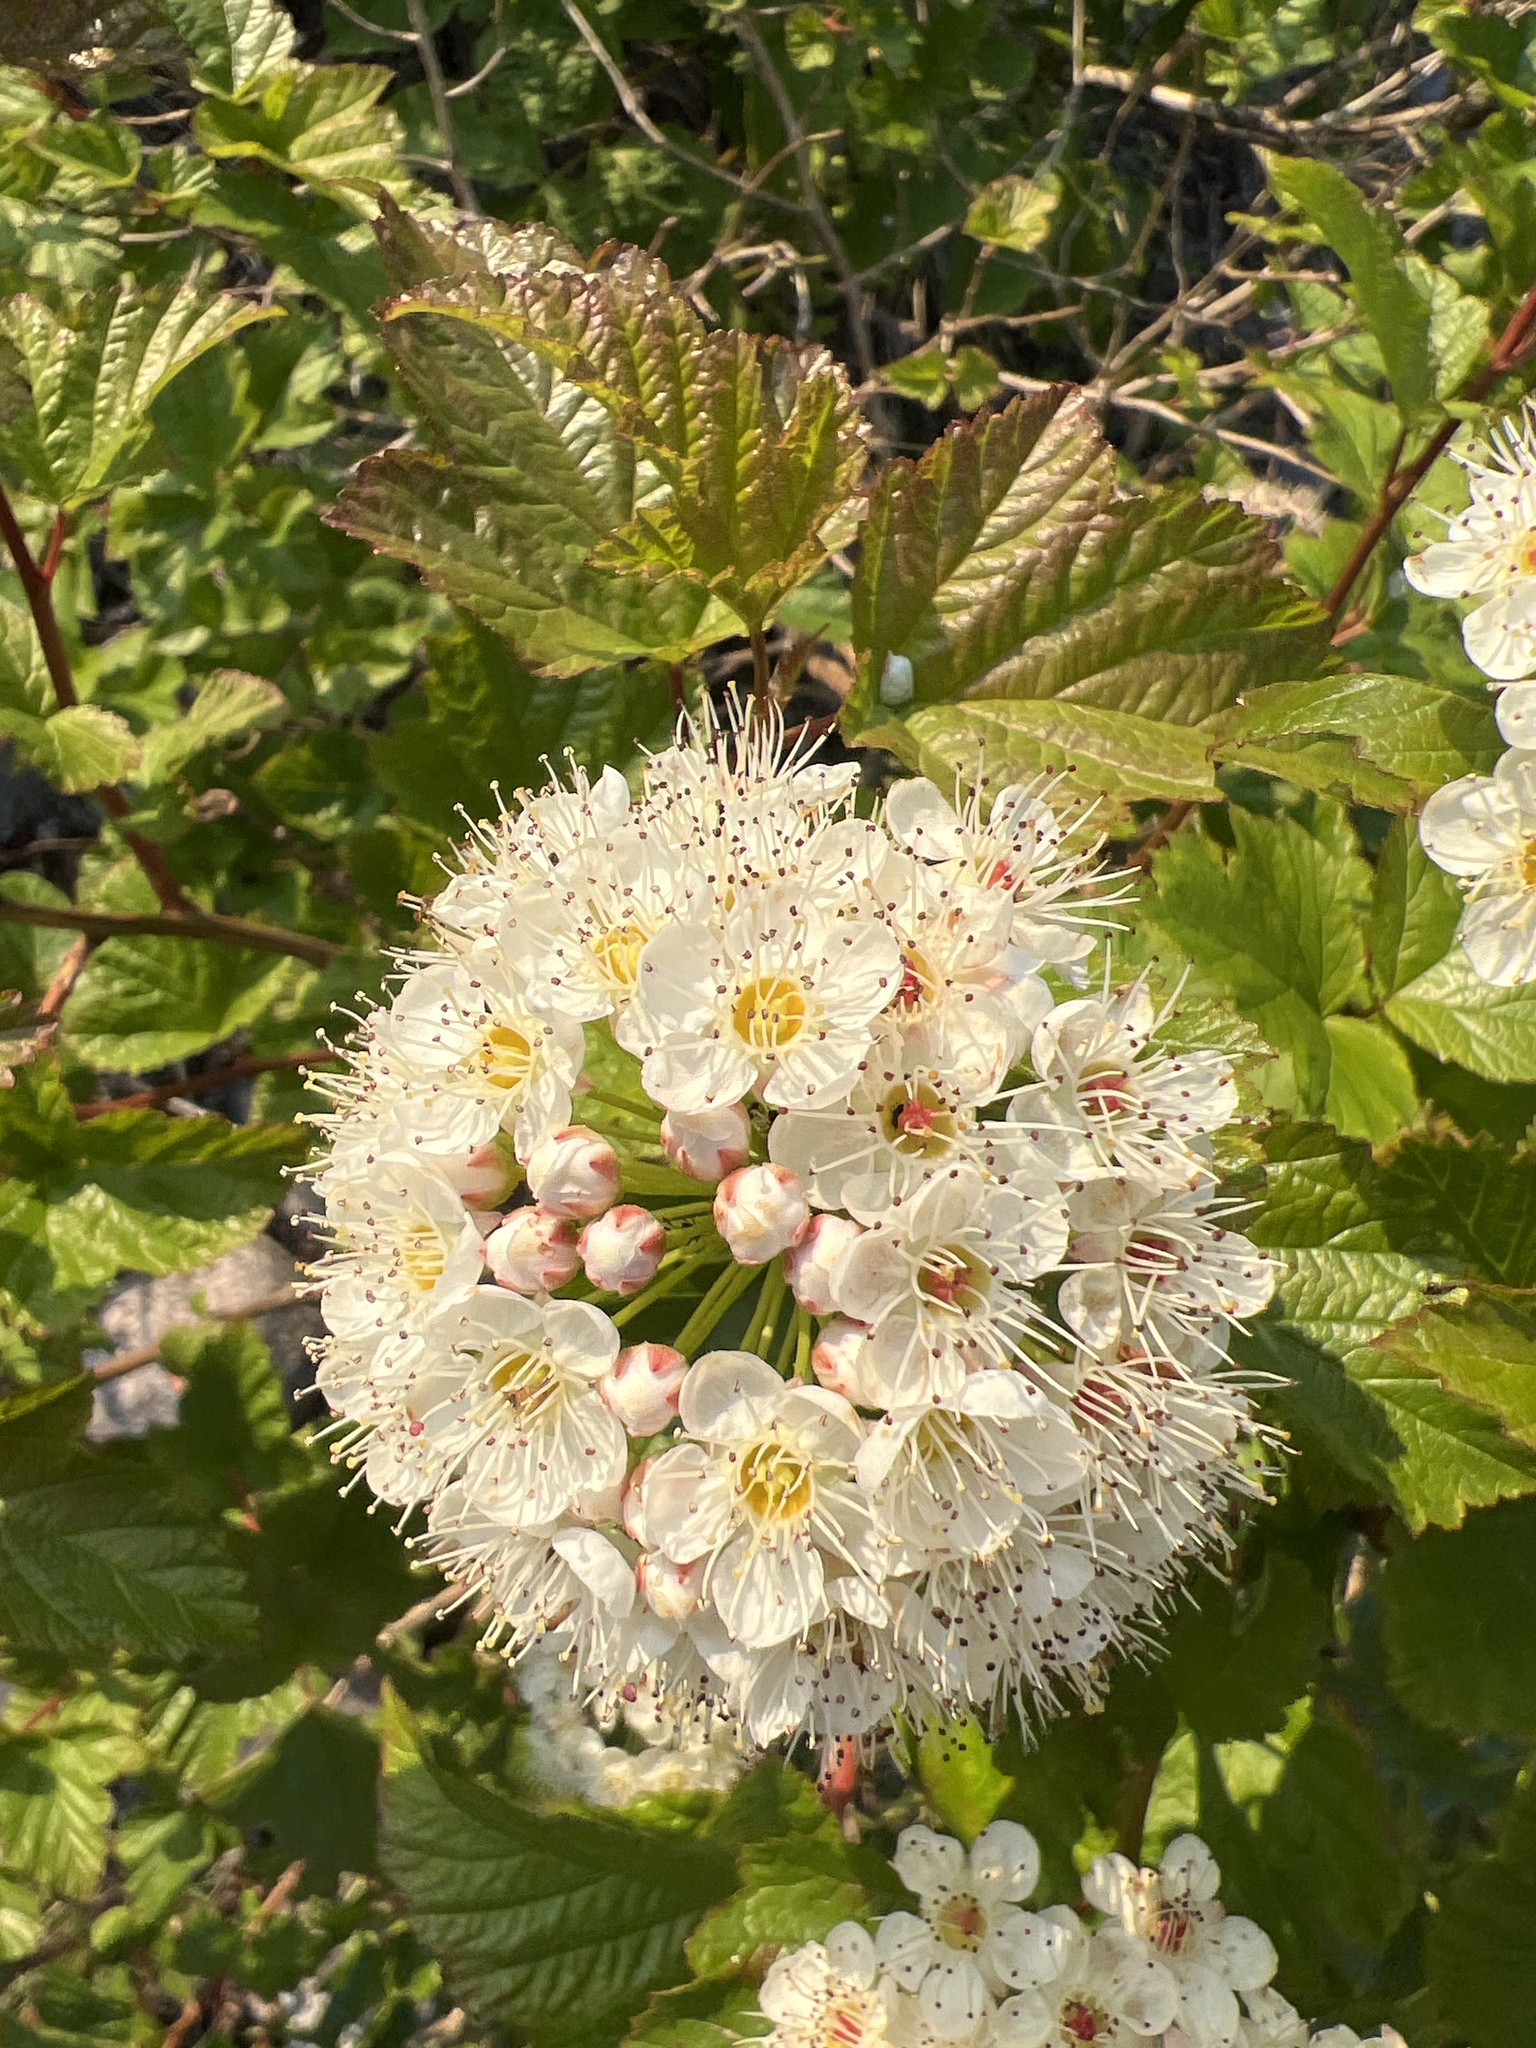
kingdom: Plantae
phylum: Tracheophyta
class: Magnoliopsida
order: Rosales
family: Rosaceae
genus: Physocarpus
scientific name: Physocarpus opulifolius
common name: Ninebark
